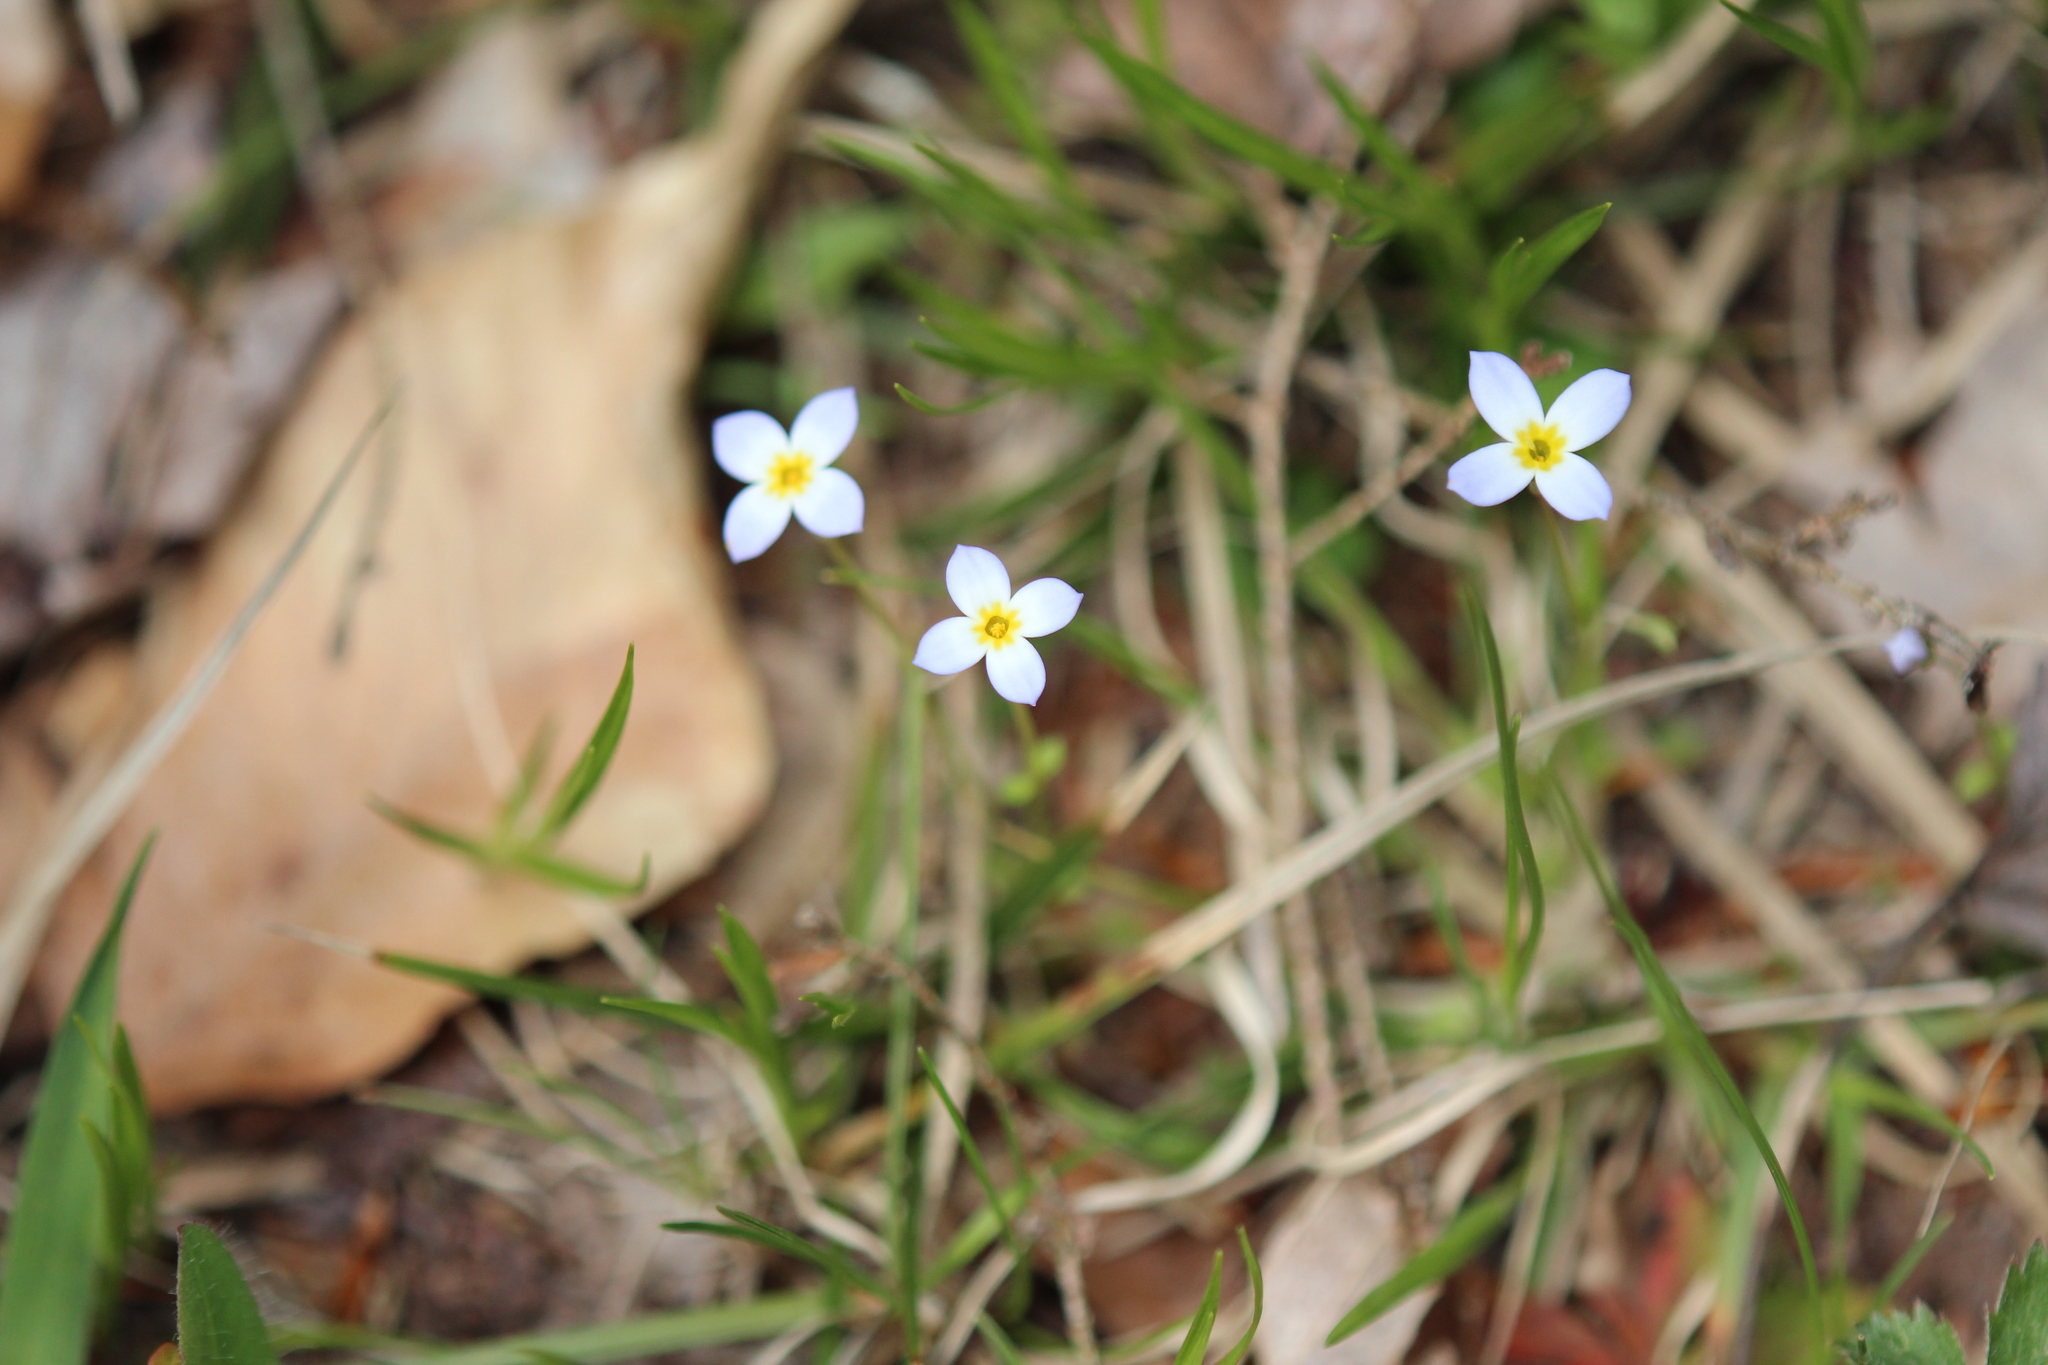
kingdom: Plantae
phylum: Tracheophyta
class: Magnoliopsida
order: Gentianales
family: Rubiaceae
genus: Houstonia
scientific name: Houstonia caerulea
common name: Bluets
